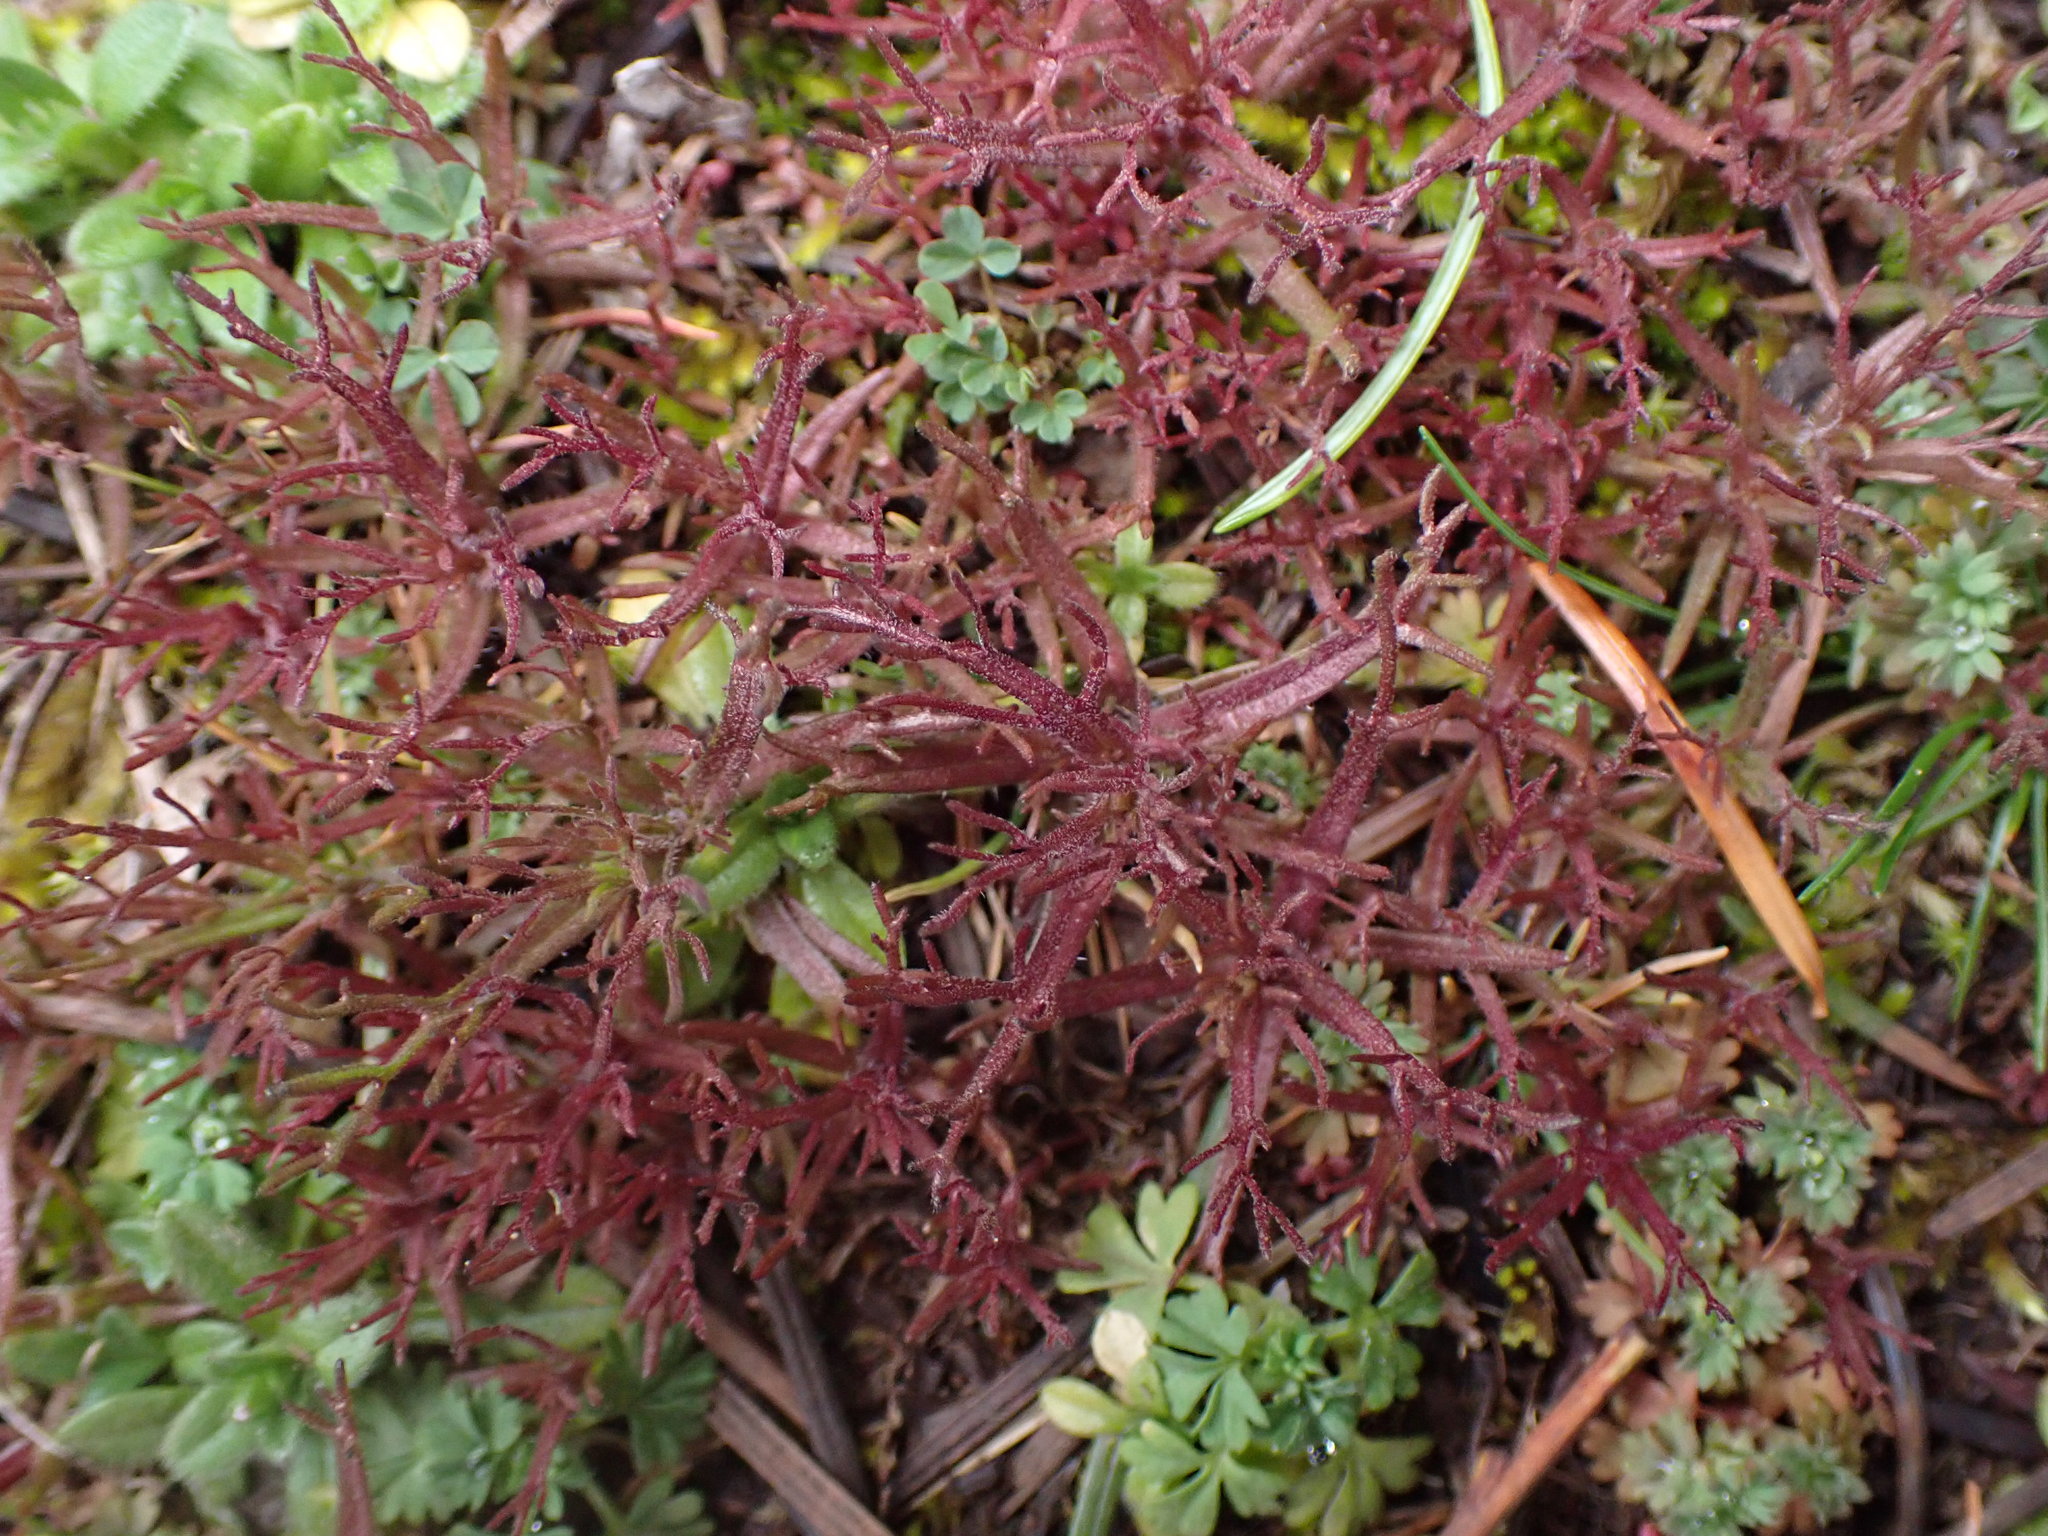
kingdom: Plantae
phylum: Tracheophyta
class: Magnoliopsida
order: Lamiales
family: Orobanchaceae
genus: Triphysaria
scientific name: Triphysaria pusilla
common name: Dwarf false owl-clover
